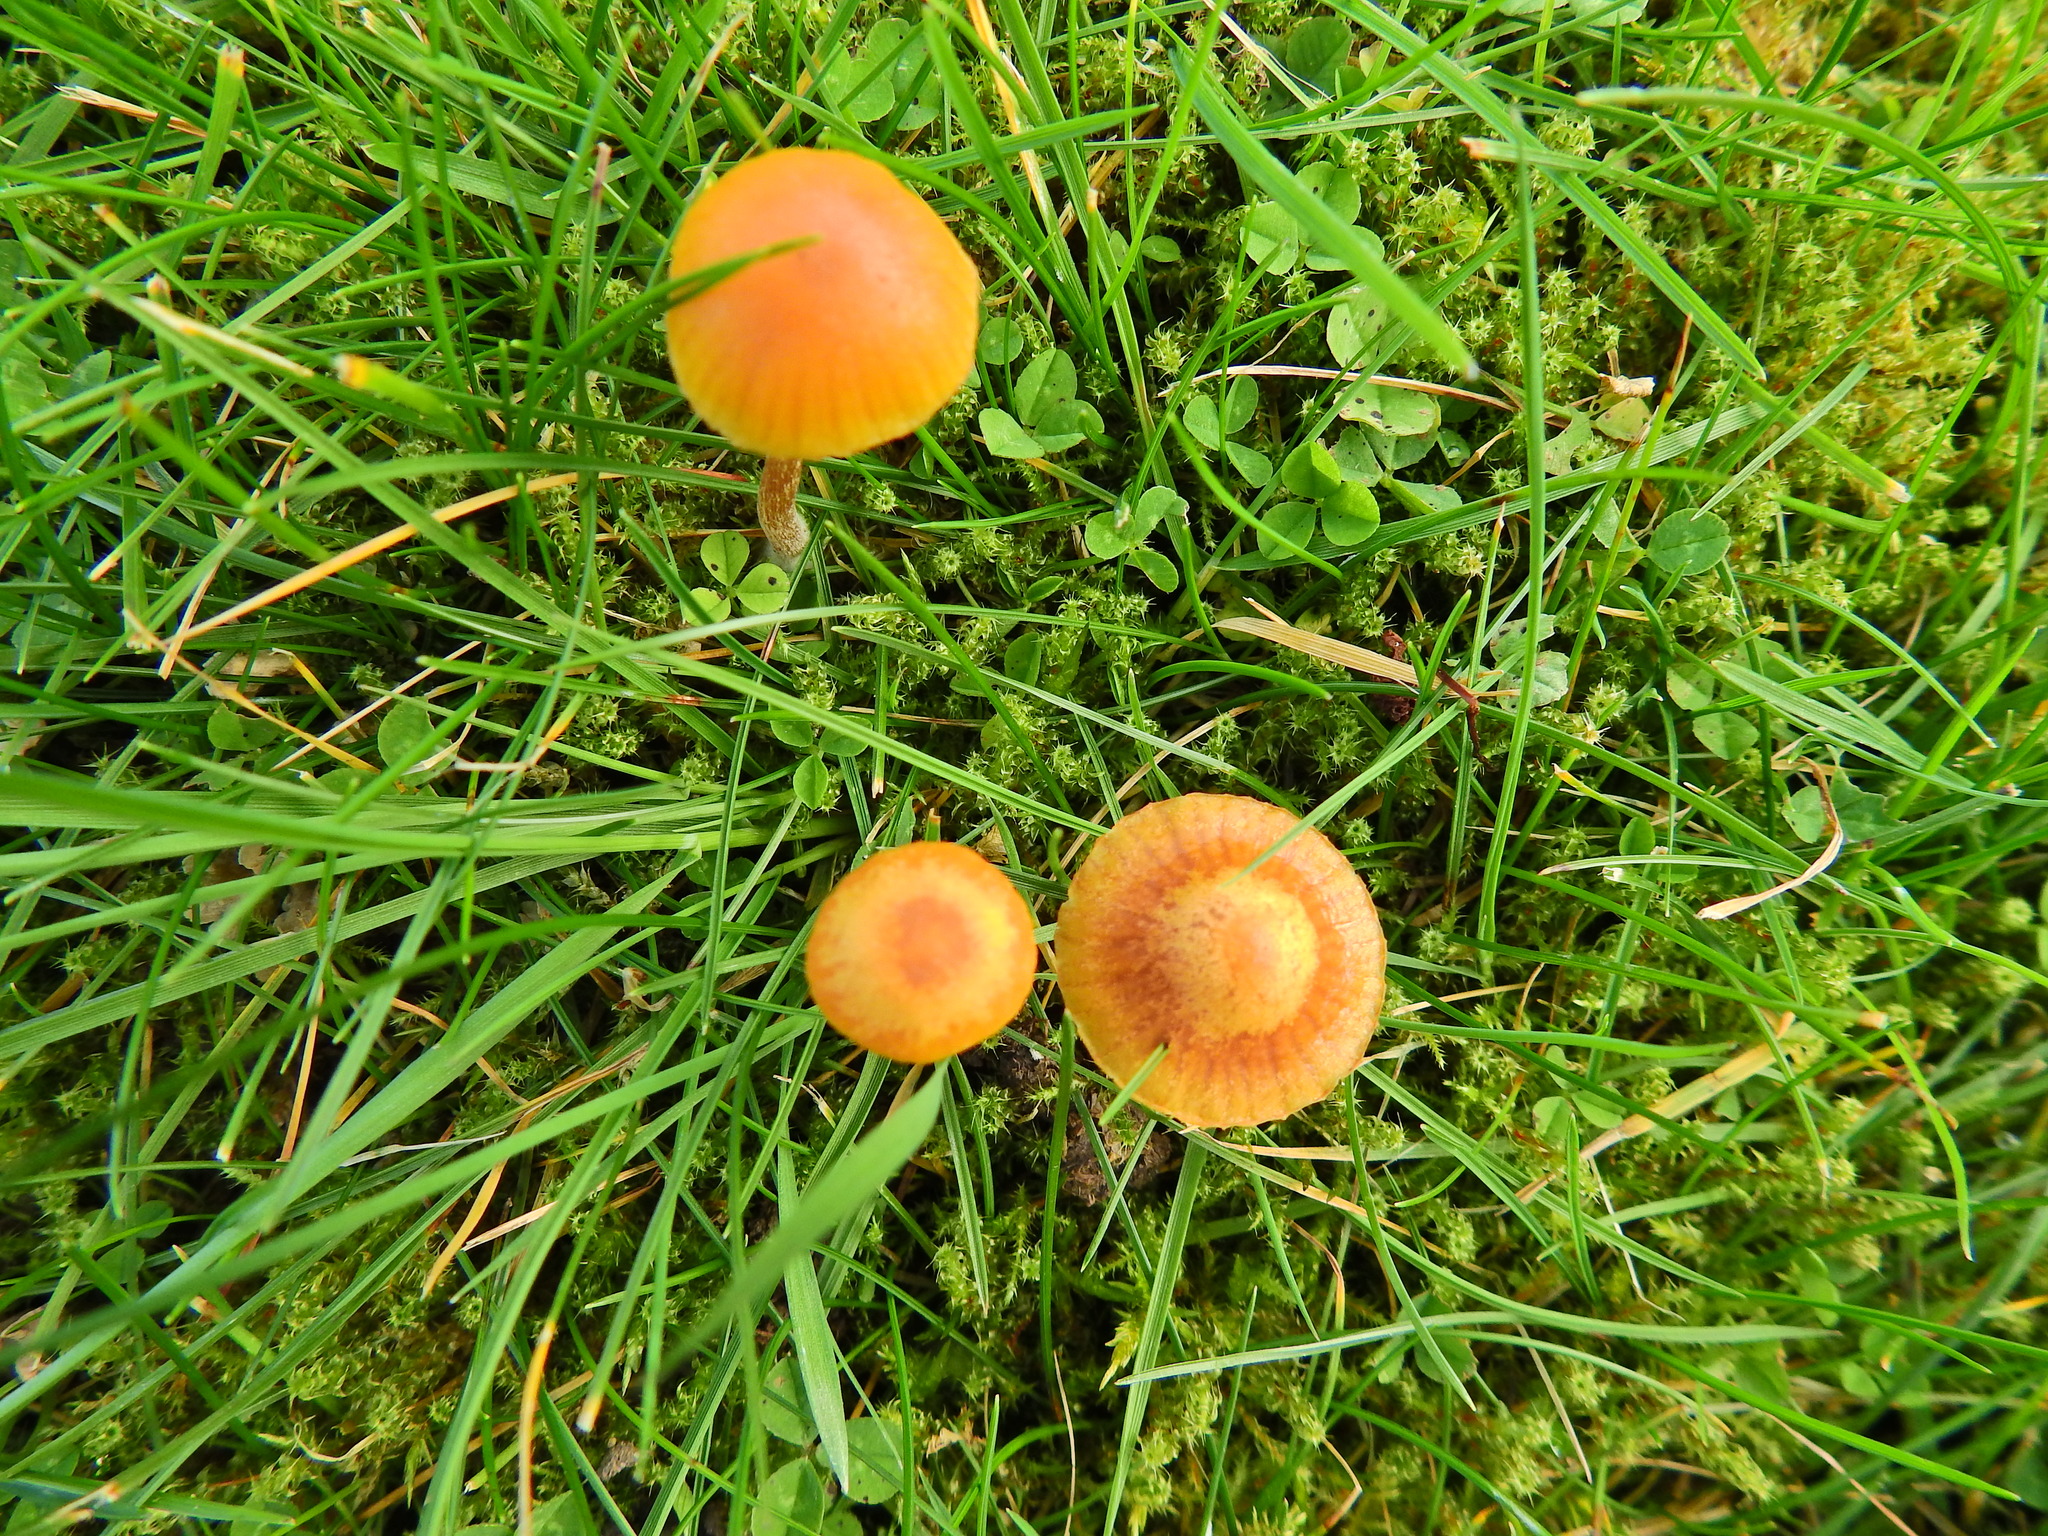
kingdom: Fungi
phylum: Basidiomycota
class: Agaricomycetes
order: Agaricales
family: Hymenogastraceae
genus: Galerina
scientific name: Galerina
